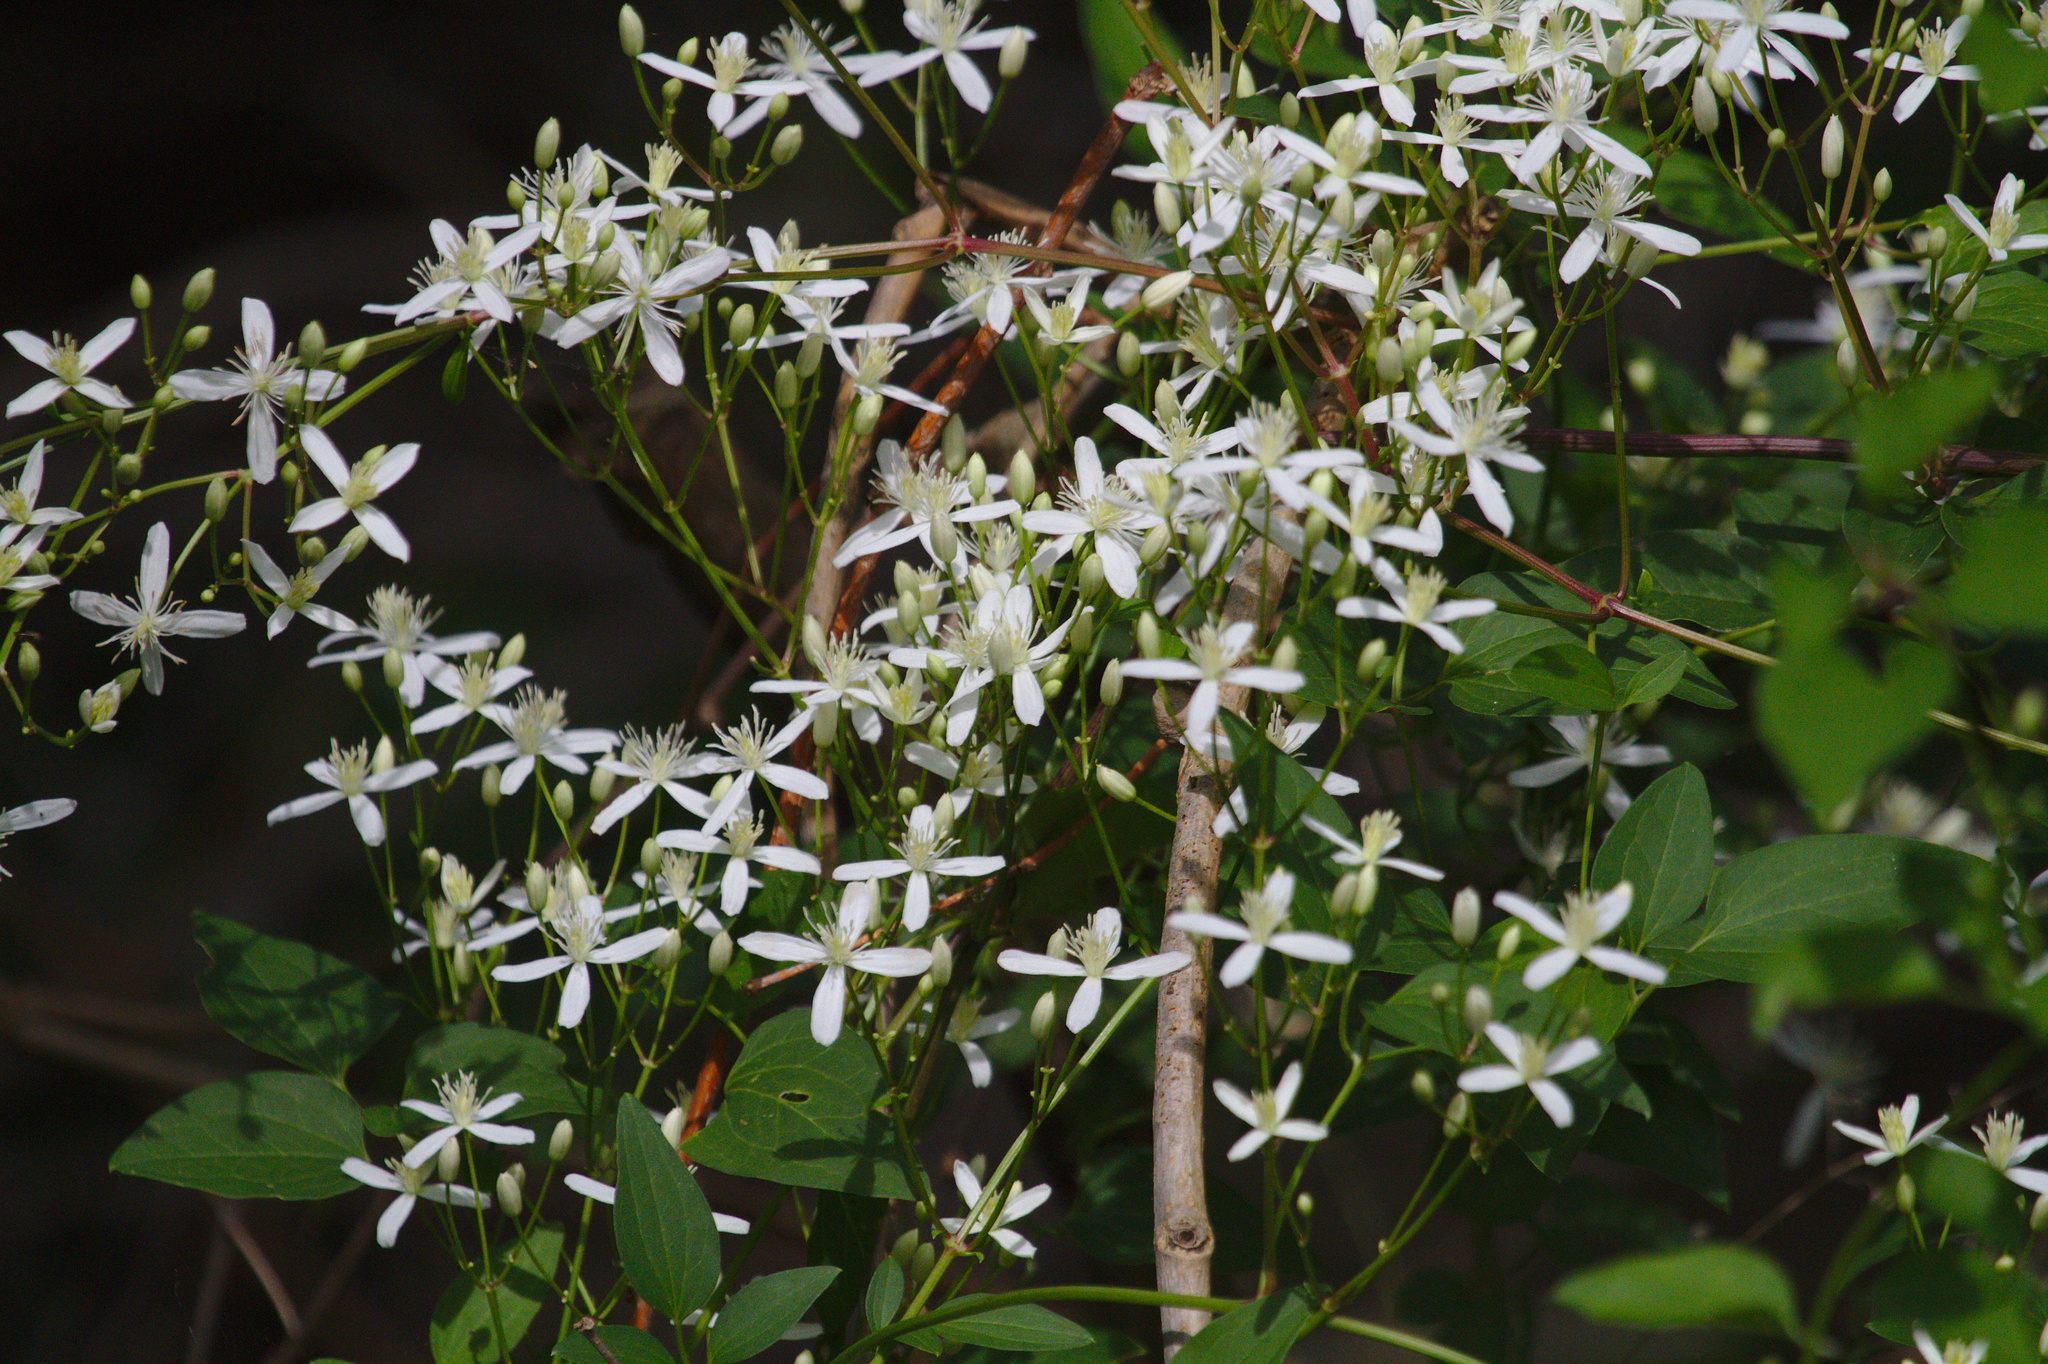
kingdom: Plantae
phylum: Tracheophyta
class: Magnoliopsida
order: Ranunculales
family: Ranunculaceae
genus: Clematis
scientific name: Clematis terniflora
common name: Sweet autumn clematis
